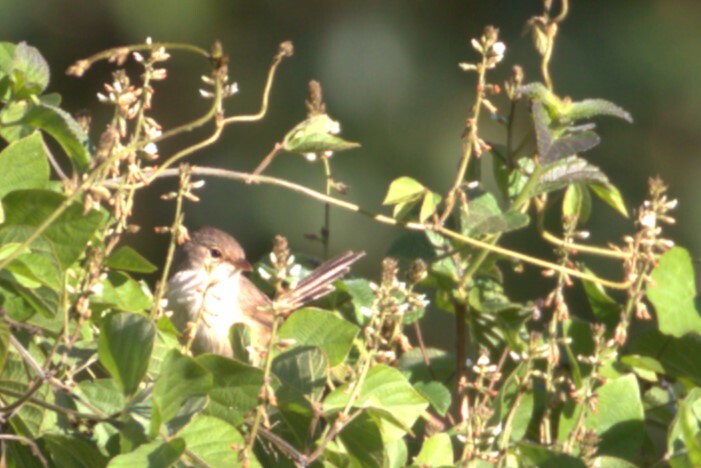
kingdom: Animalia
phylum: Chordata
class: Aves
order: Passeriformes
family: Maluridae
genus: Malurus
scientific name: Malurus melanocephalus
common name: Red-backed fairywren
